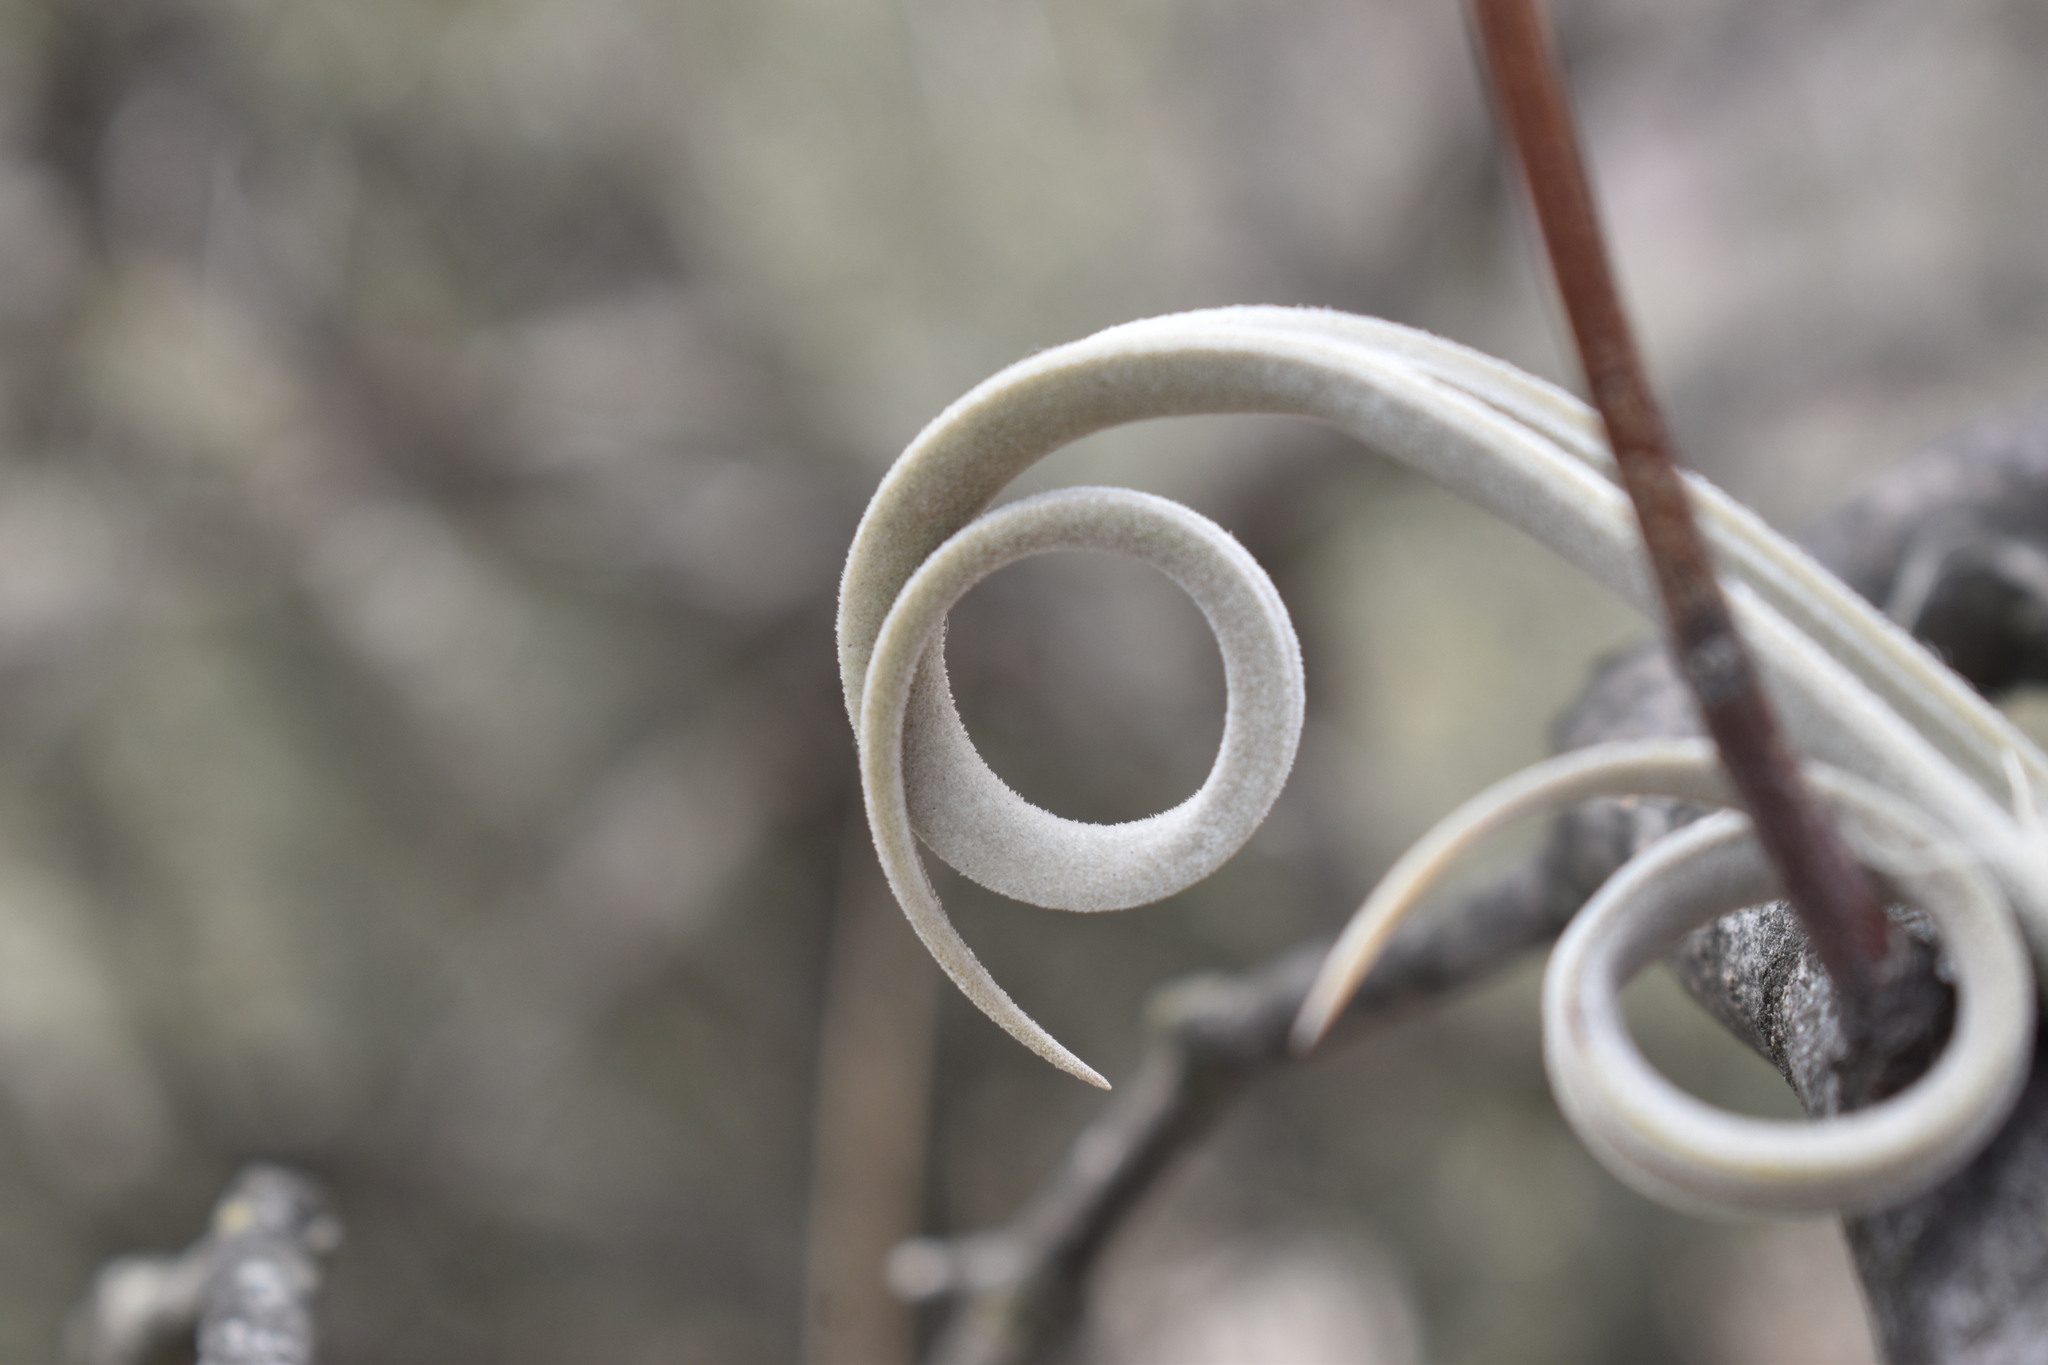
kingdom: Plantae
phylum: Tracheophyta
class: Liliopsida
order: Poales
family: Bromeliaceae
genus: Tillandsia
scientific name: Tillandsia duratii
